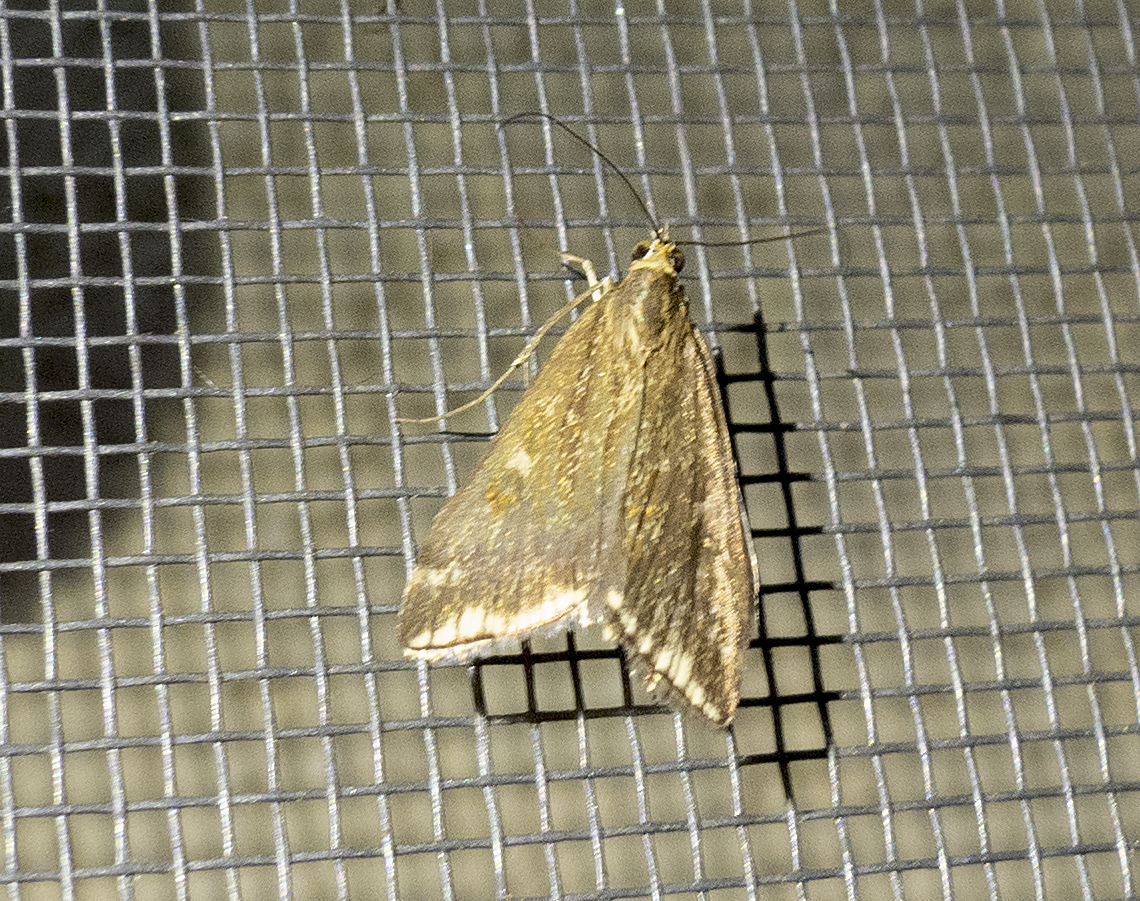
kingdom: Animalia
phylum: Arthropoda
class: Insecta
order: Lepidoptera
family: Crambidae
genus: Loxostege
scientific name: Loxostege sticticalis
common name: Crambid moth
